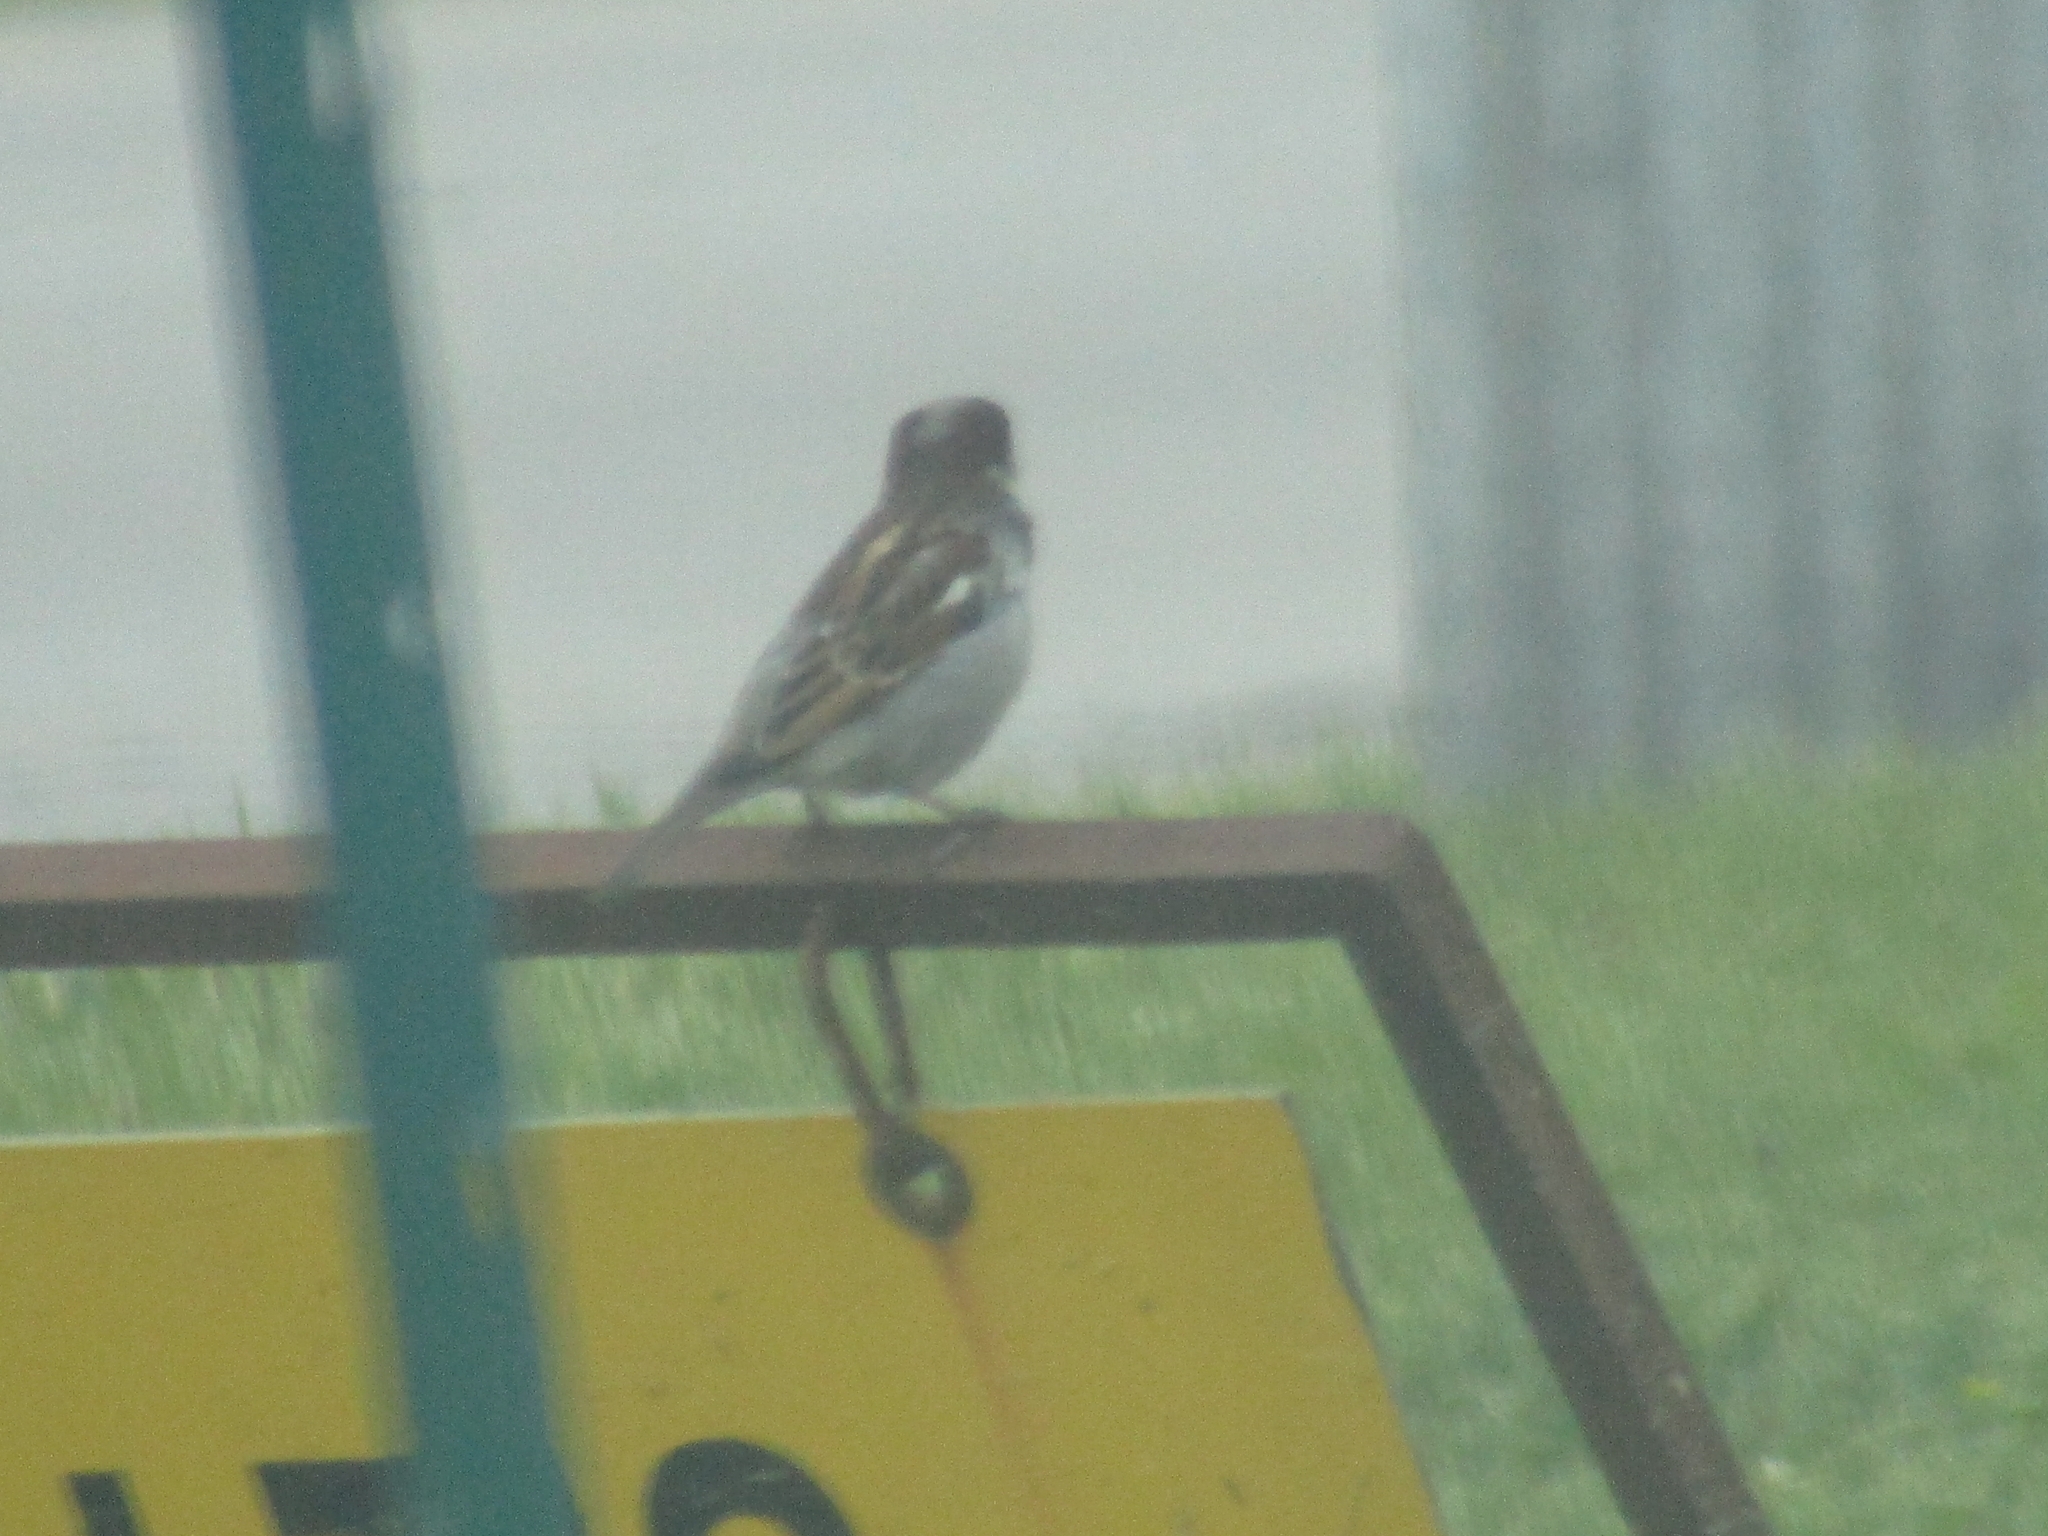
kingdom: Animalia
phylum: Chordata
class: Aves
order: Passeriformes
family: Passeridae
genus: Passer
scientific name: Passer domesticus
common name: House sparrow
